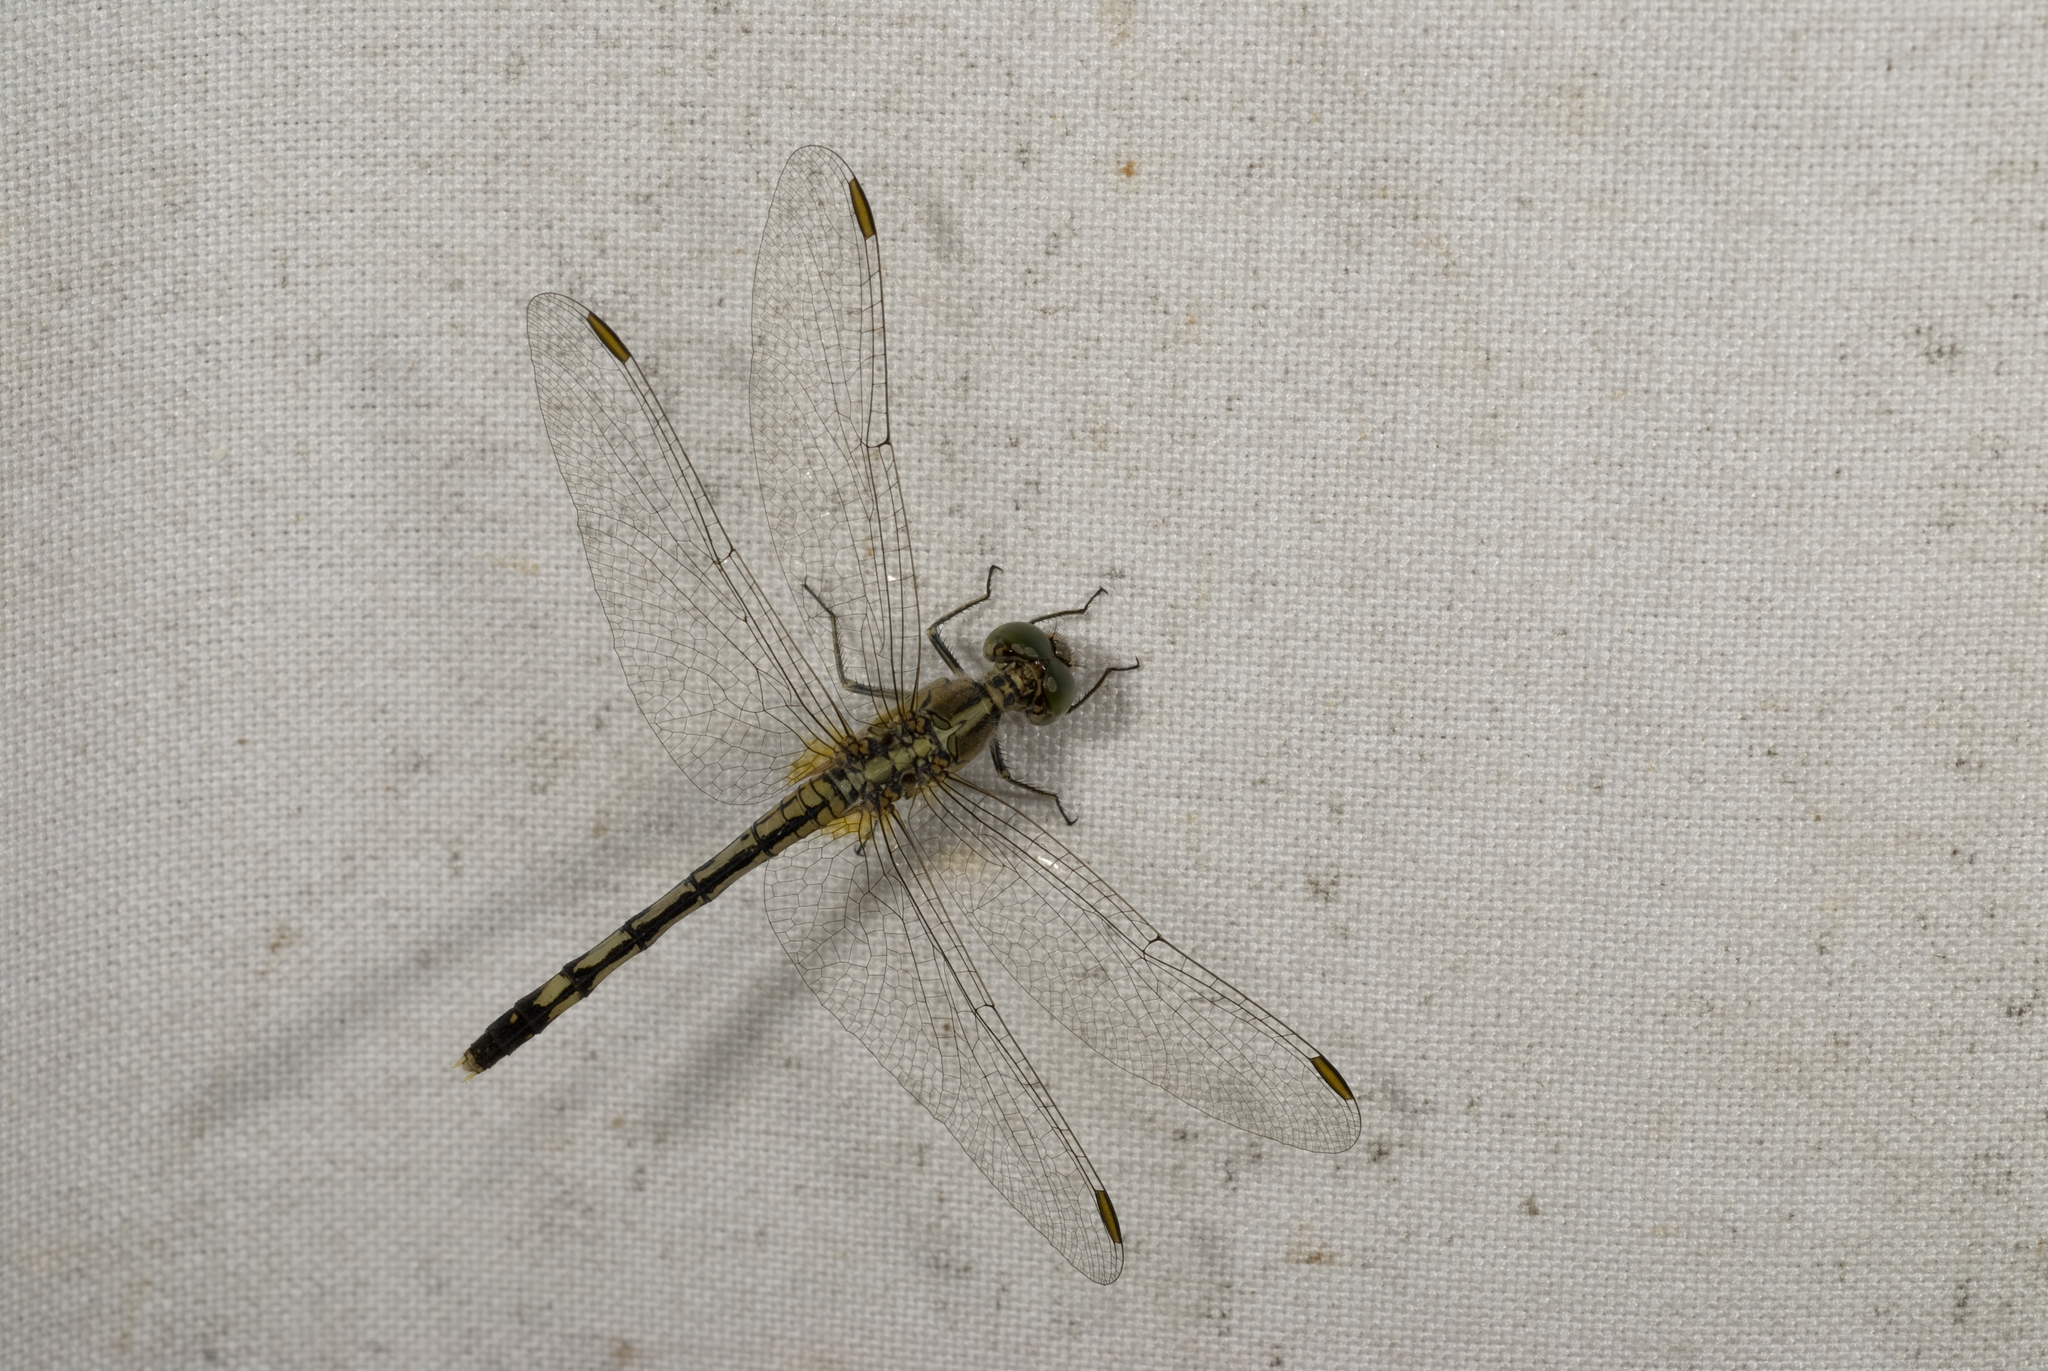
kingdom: Animalia
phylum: Arthropoda
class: Insecta
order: Odonata
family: Libellulidae
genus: Diplacodes
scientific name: Diplacodes trivialis
